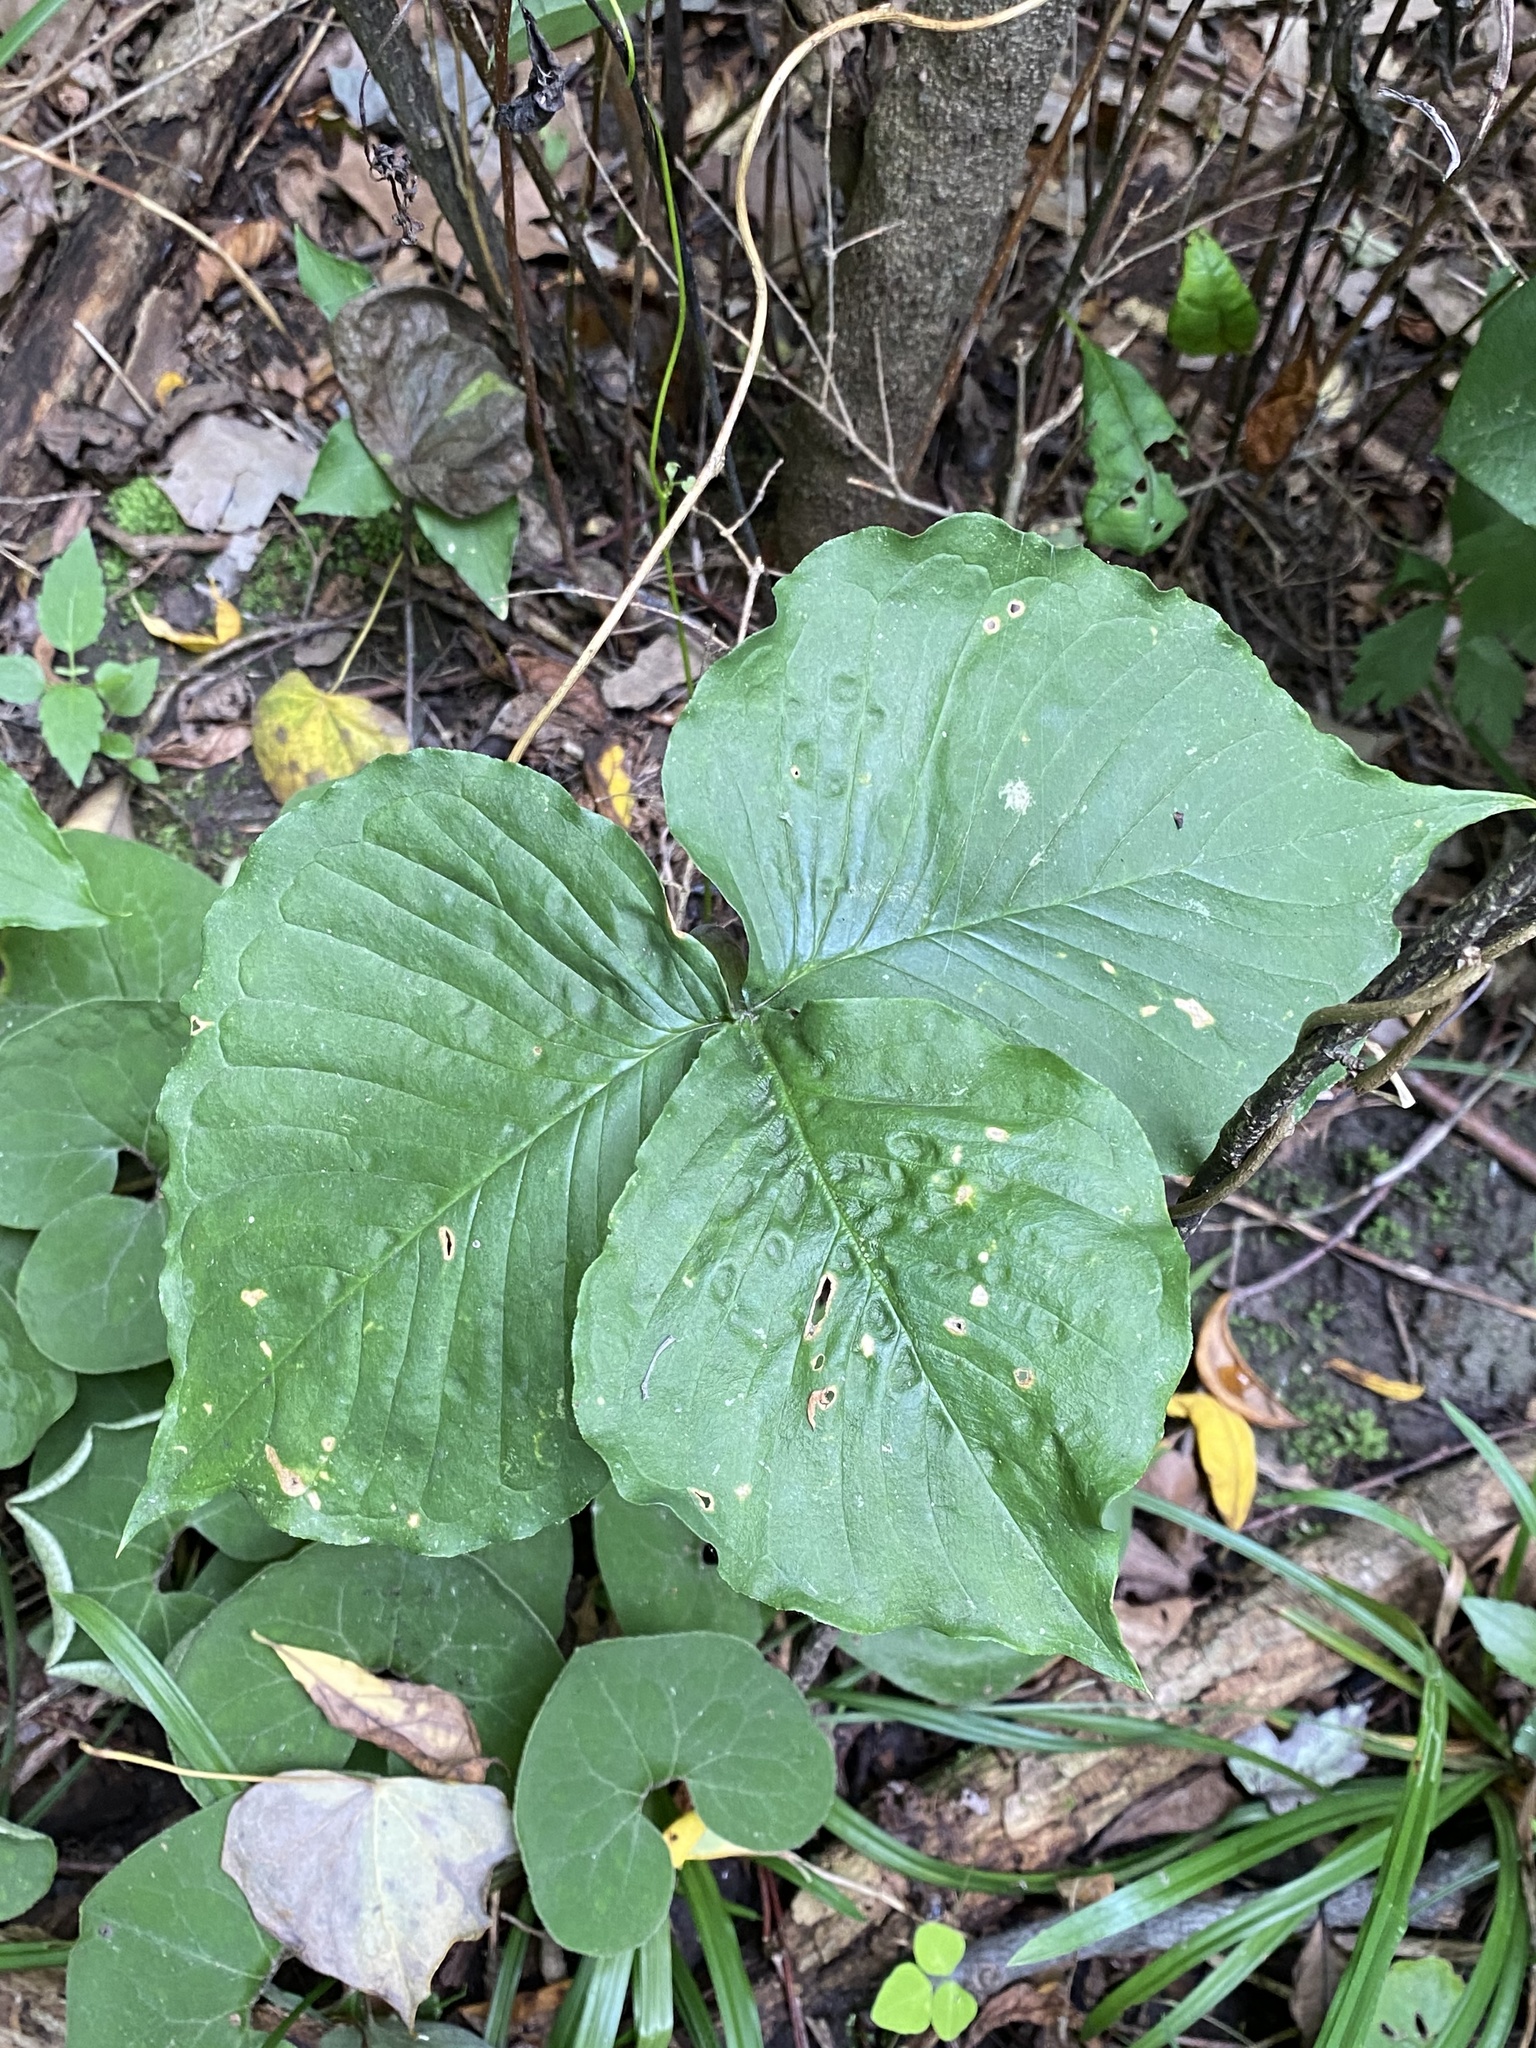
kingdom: Plantae
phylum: Tracheophyta
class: Liliopsida
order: Alismatales
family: Araceae
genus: Arisaema
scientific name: Arisaema triphyllum
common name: Jack-in-the-pulpit
